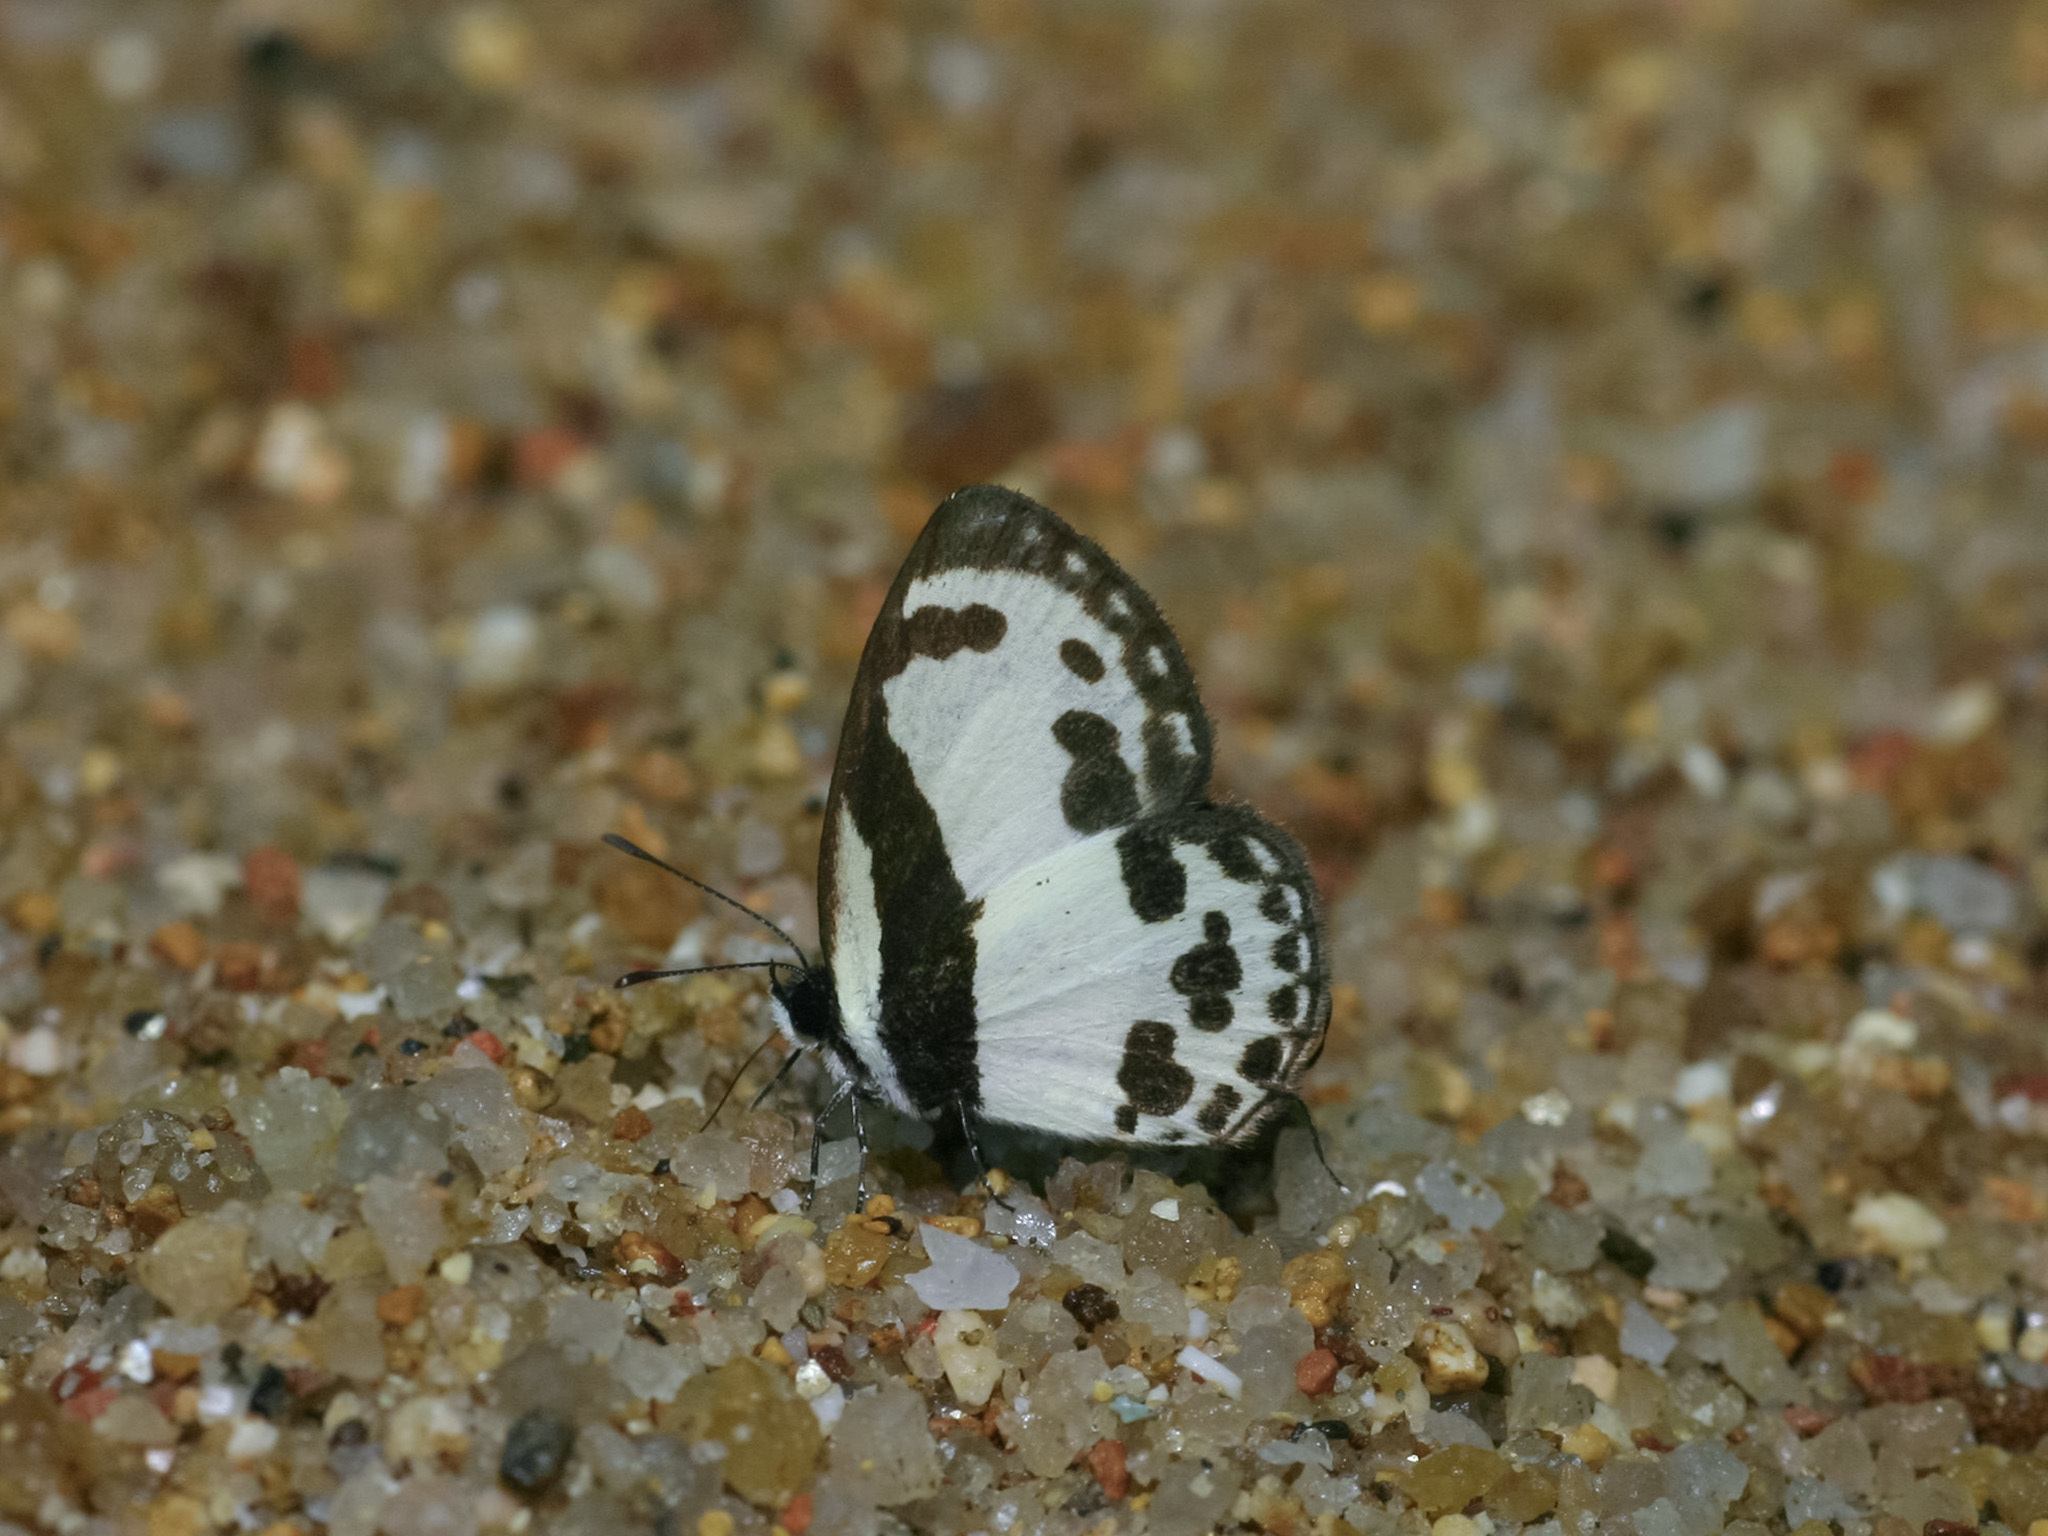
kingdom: Animalia
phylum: Arthropoda
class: Insecta
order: Lepidoptera
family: Lycaenidae
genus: Caleta
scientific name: Caleta roxus
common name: Straight pierrot
